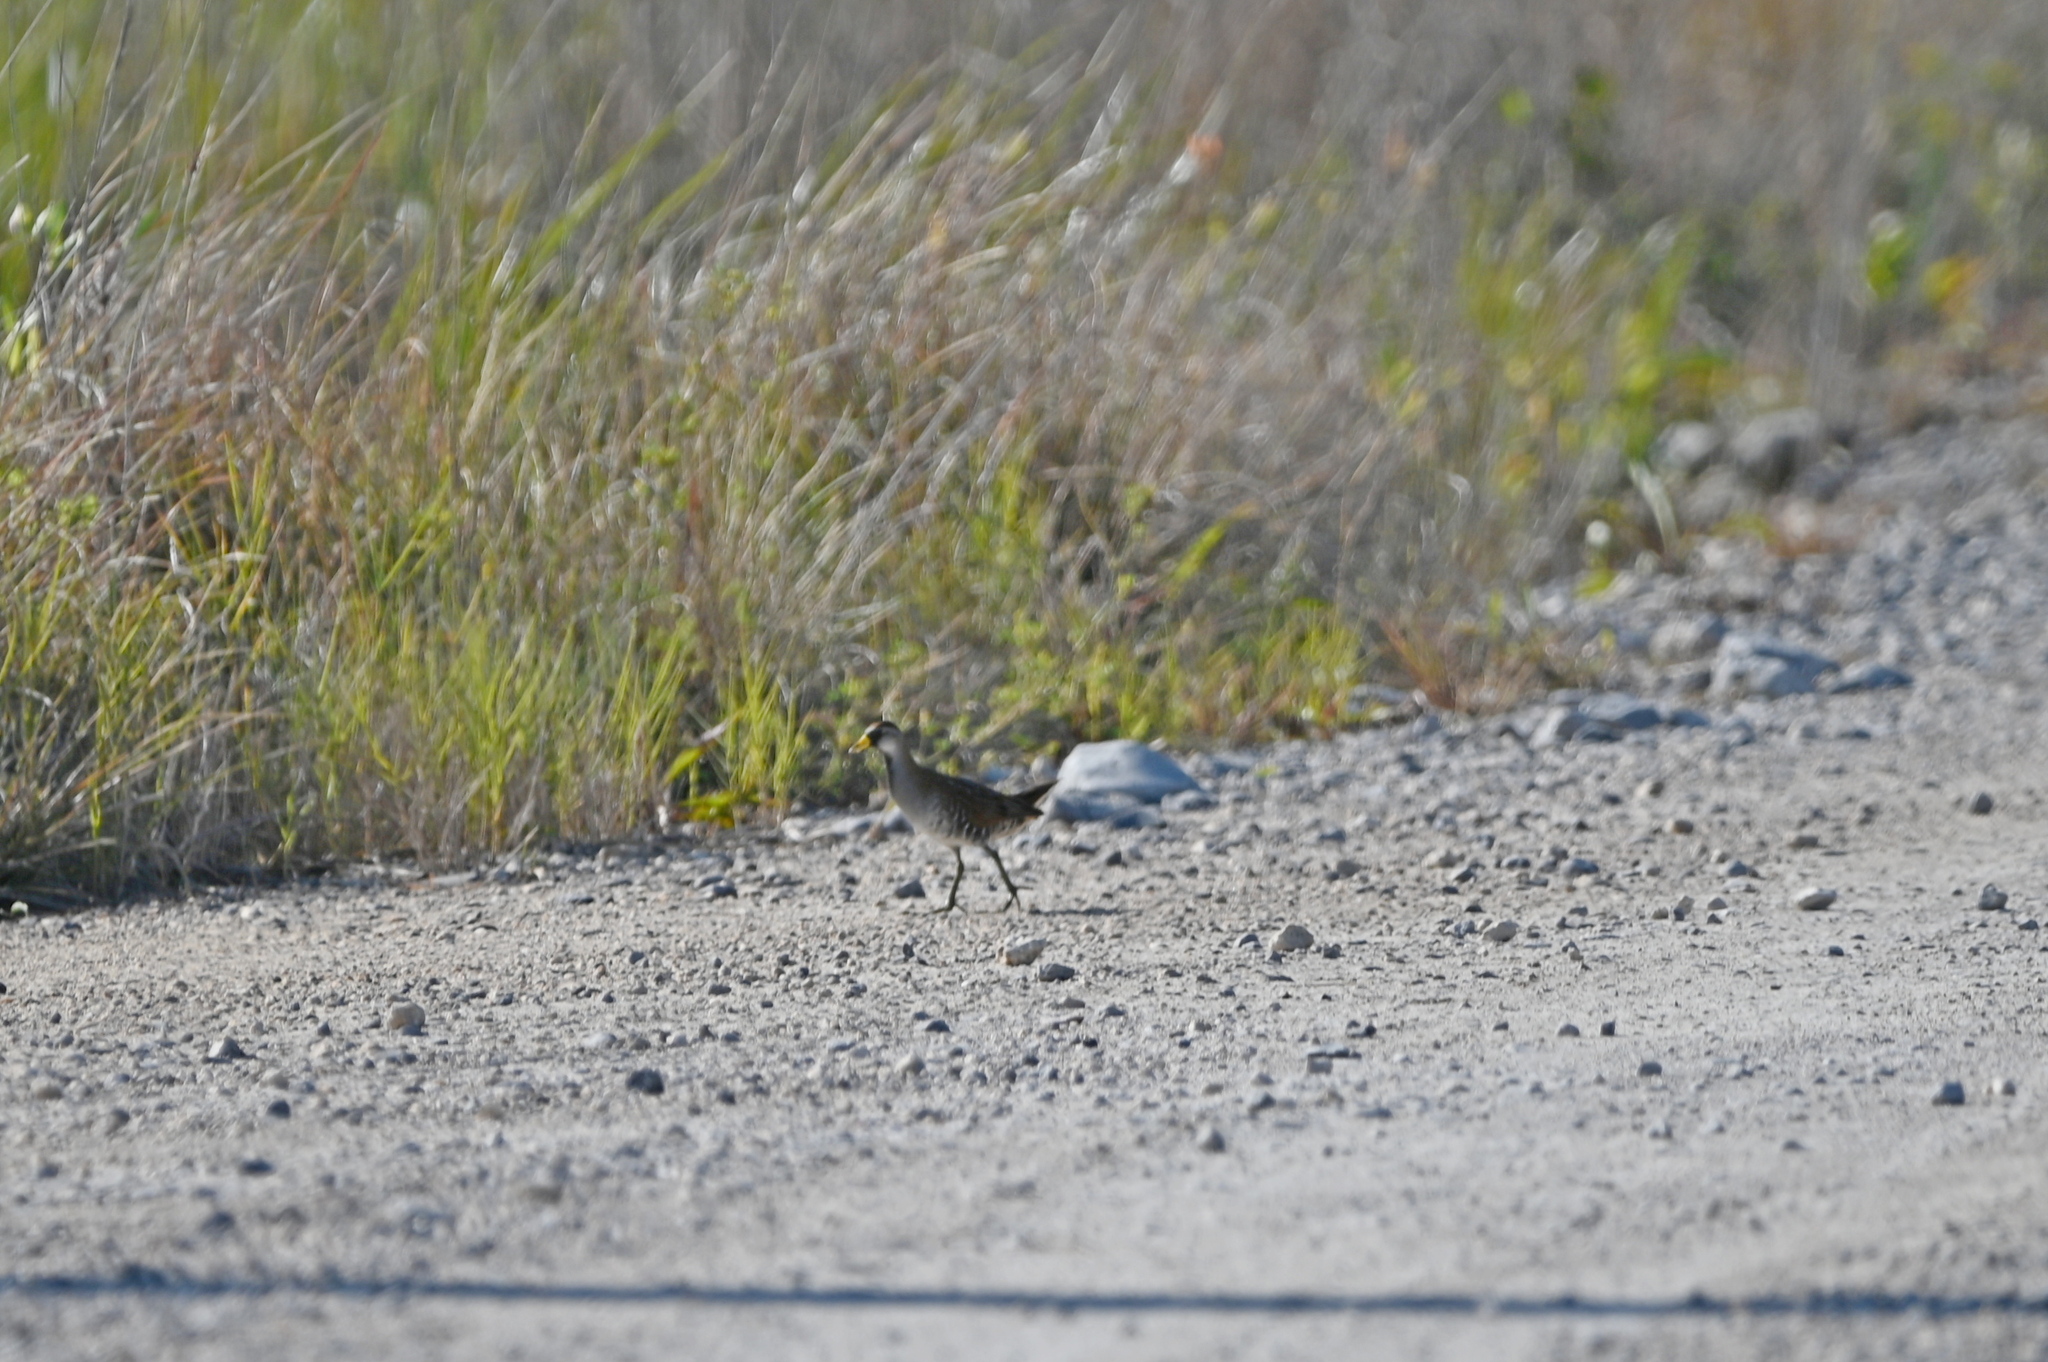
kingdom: Animalia
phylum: Chordata
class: Aves
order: Gruiformes
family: Rallidae
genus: Porzana
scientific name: Porzana carolina
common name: Sora
